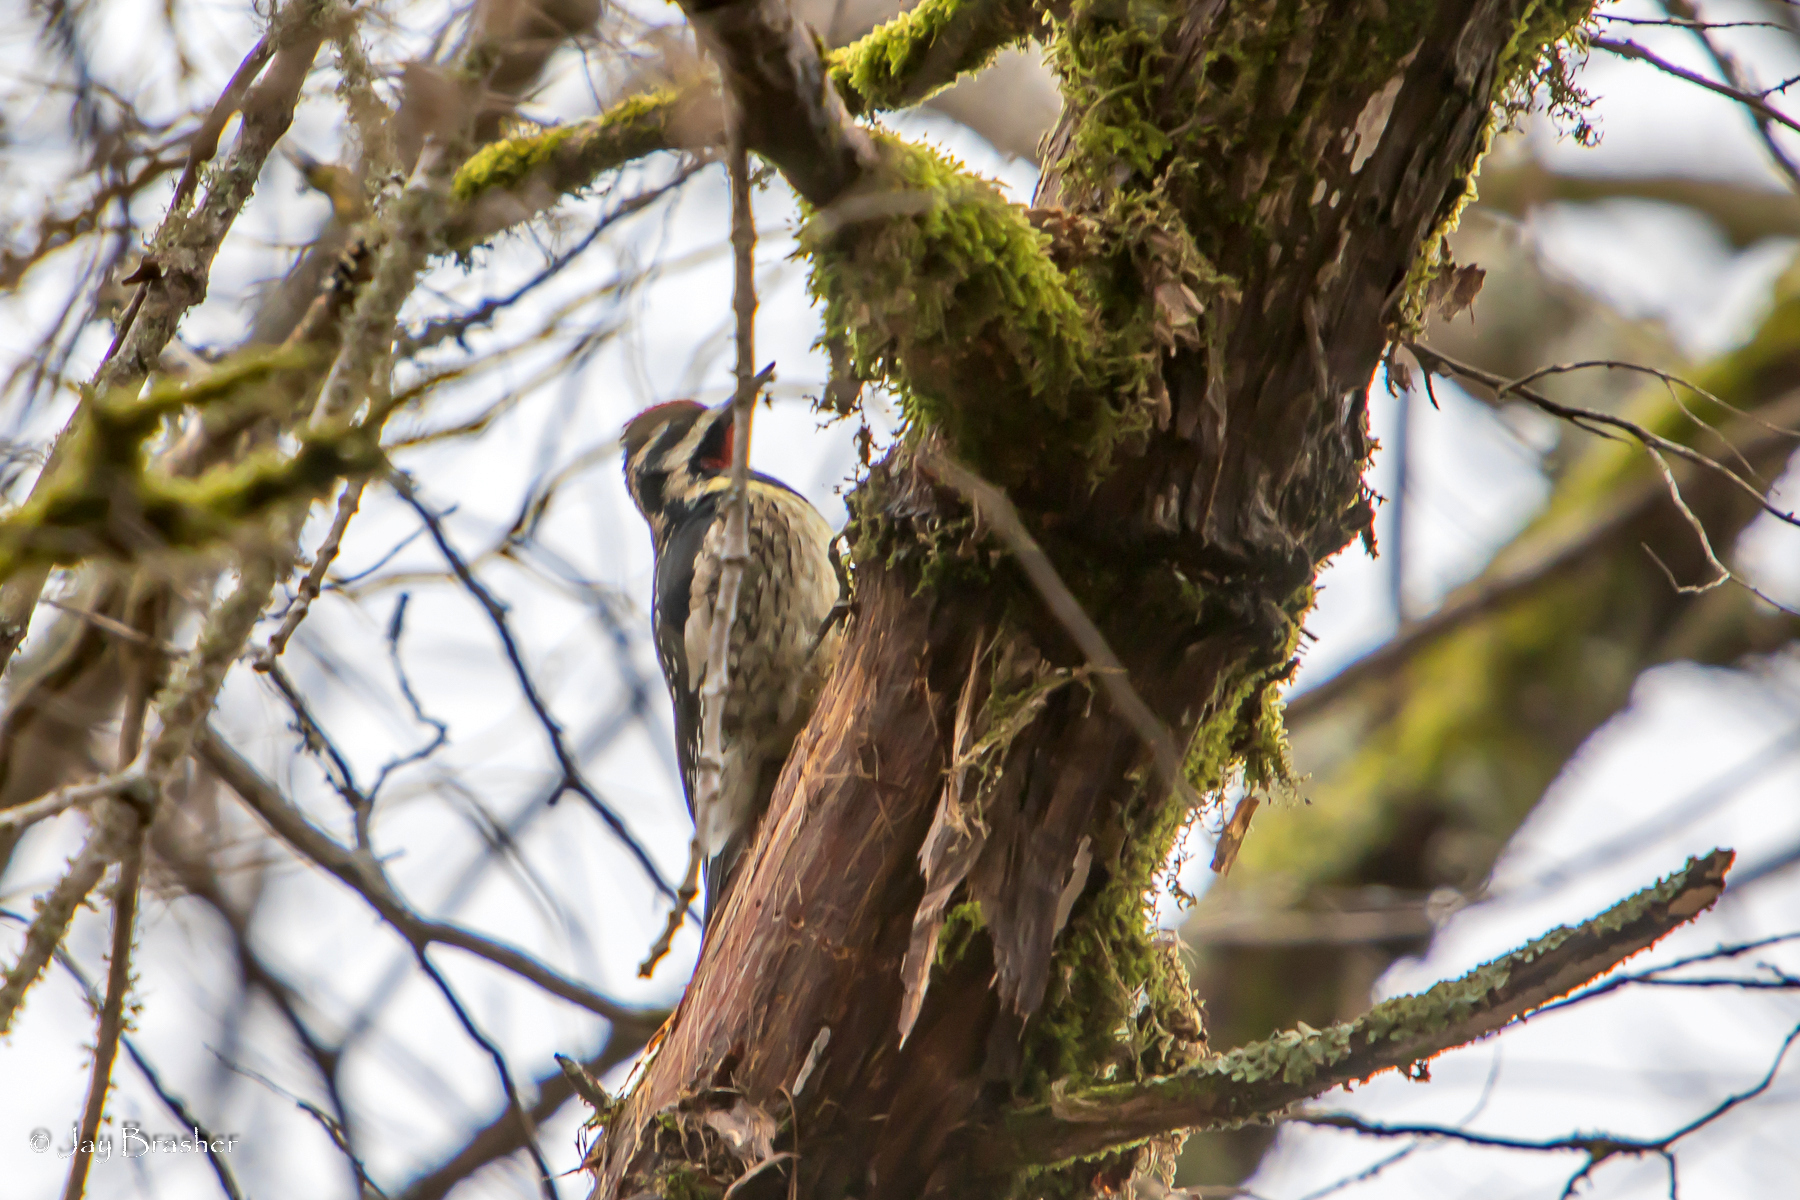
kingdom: Animalia
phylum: Chordata
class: Aves
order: Piciformes
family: Picidae
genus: Sphyrapicus
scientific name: Sphyrapicus varius
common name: Yellow-bellied sapsucker
